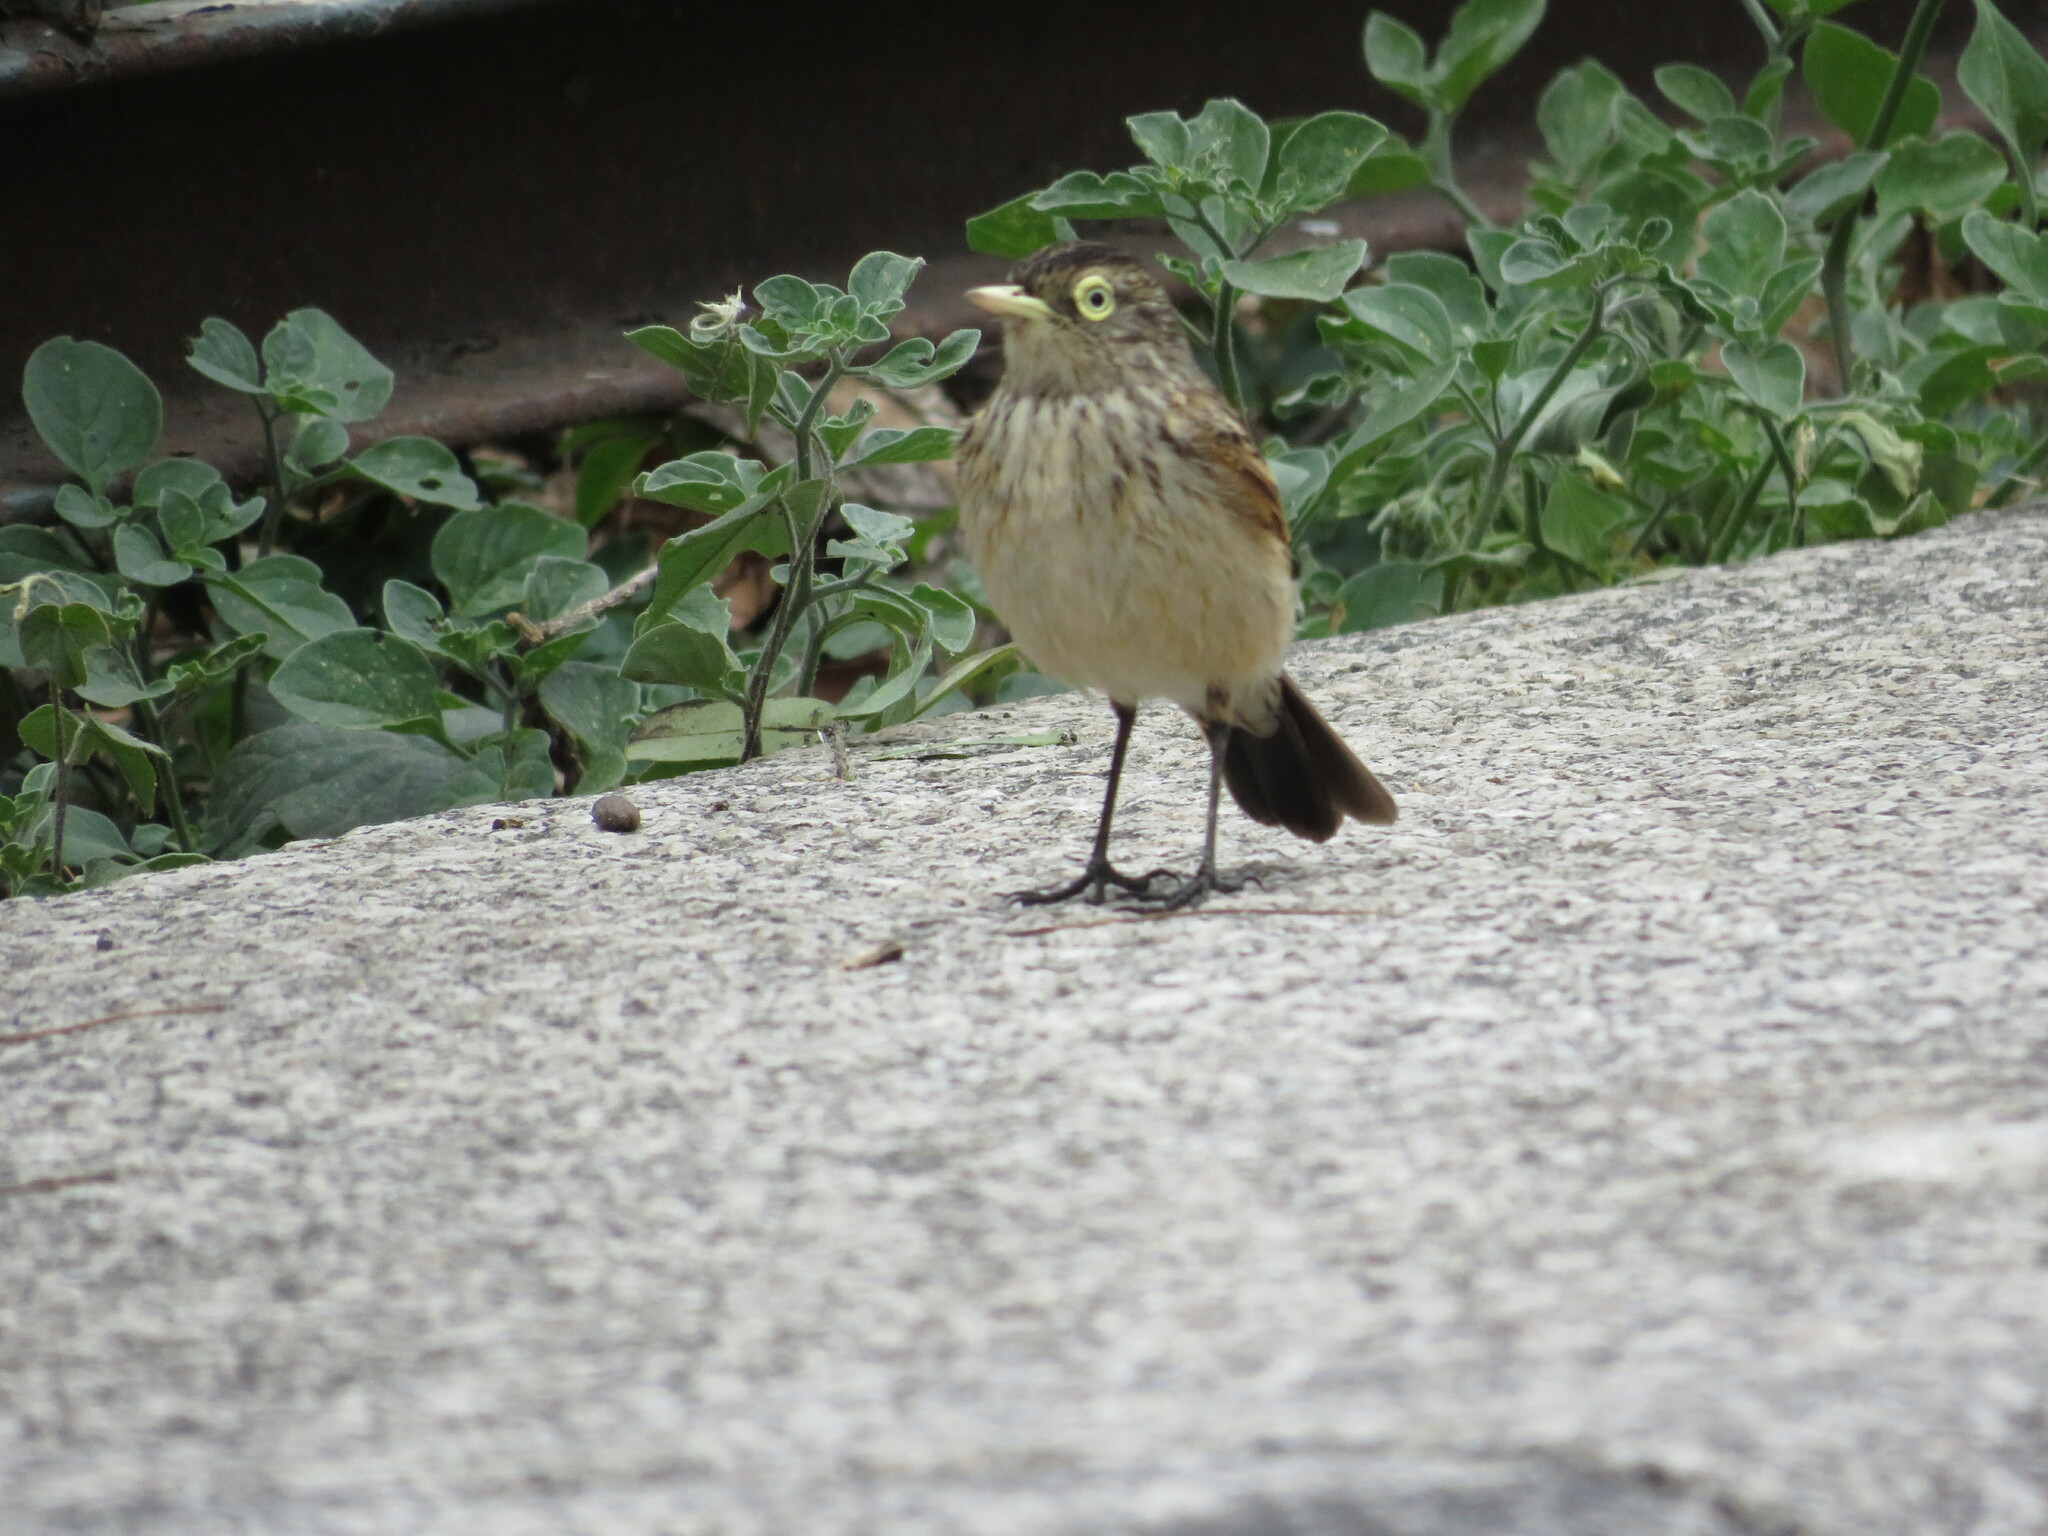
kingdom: Animalia
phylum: Chordata
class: Aves
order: Passeriformes
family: Tyrannidae
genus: Hymenops
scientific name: Hymenops perspicillatus
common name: Spectacled tyrant
